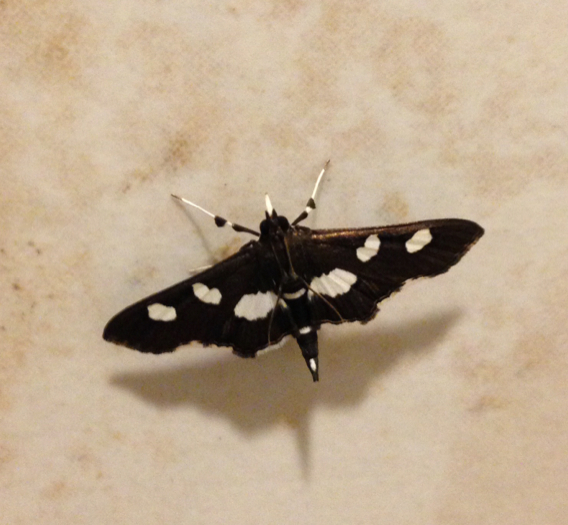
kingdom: Animalia
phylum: Arthropoda
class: Insecta
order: Lepidoptera
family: Crambidae
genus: Desmia
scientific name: Desmia
